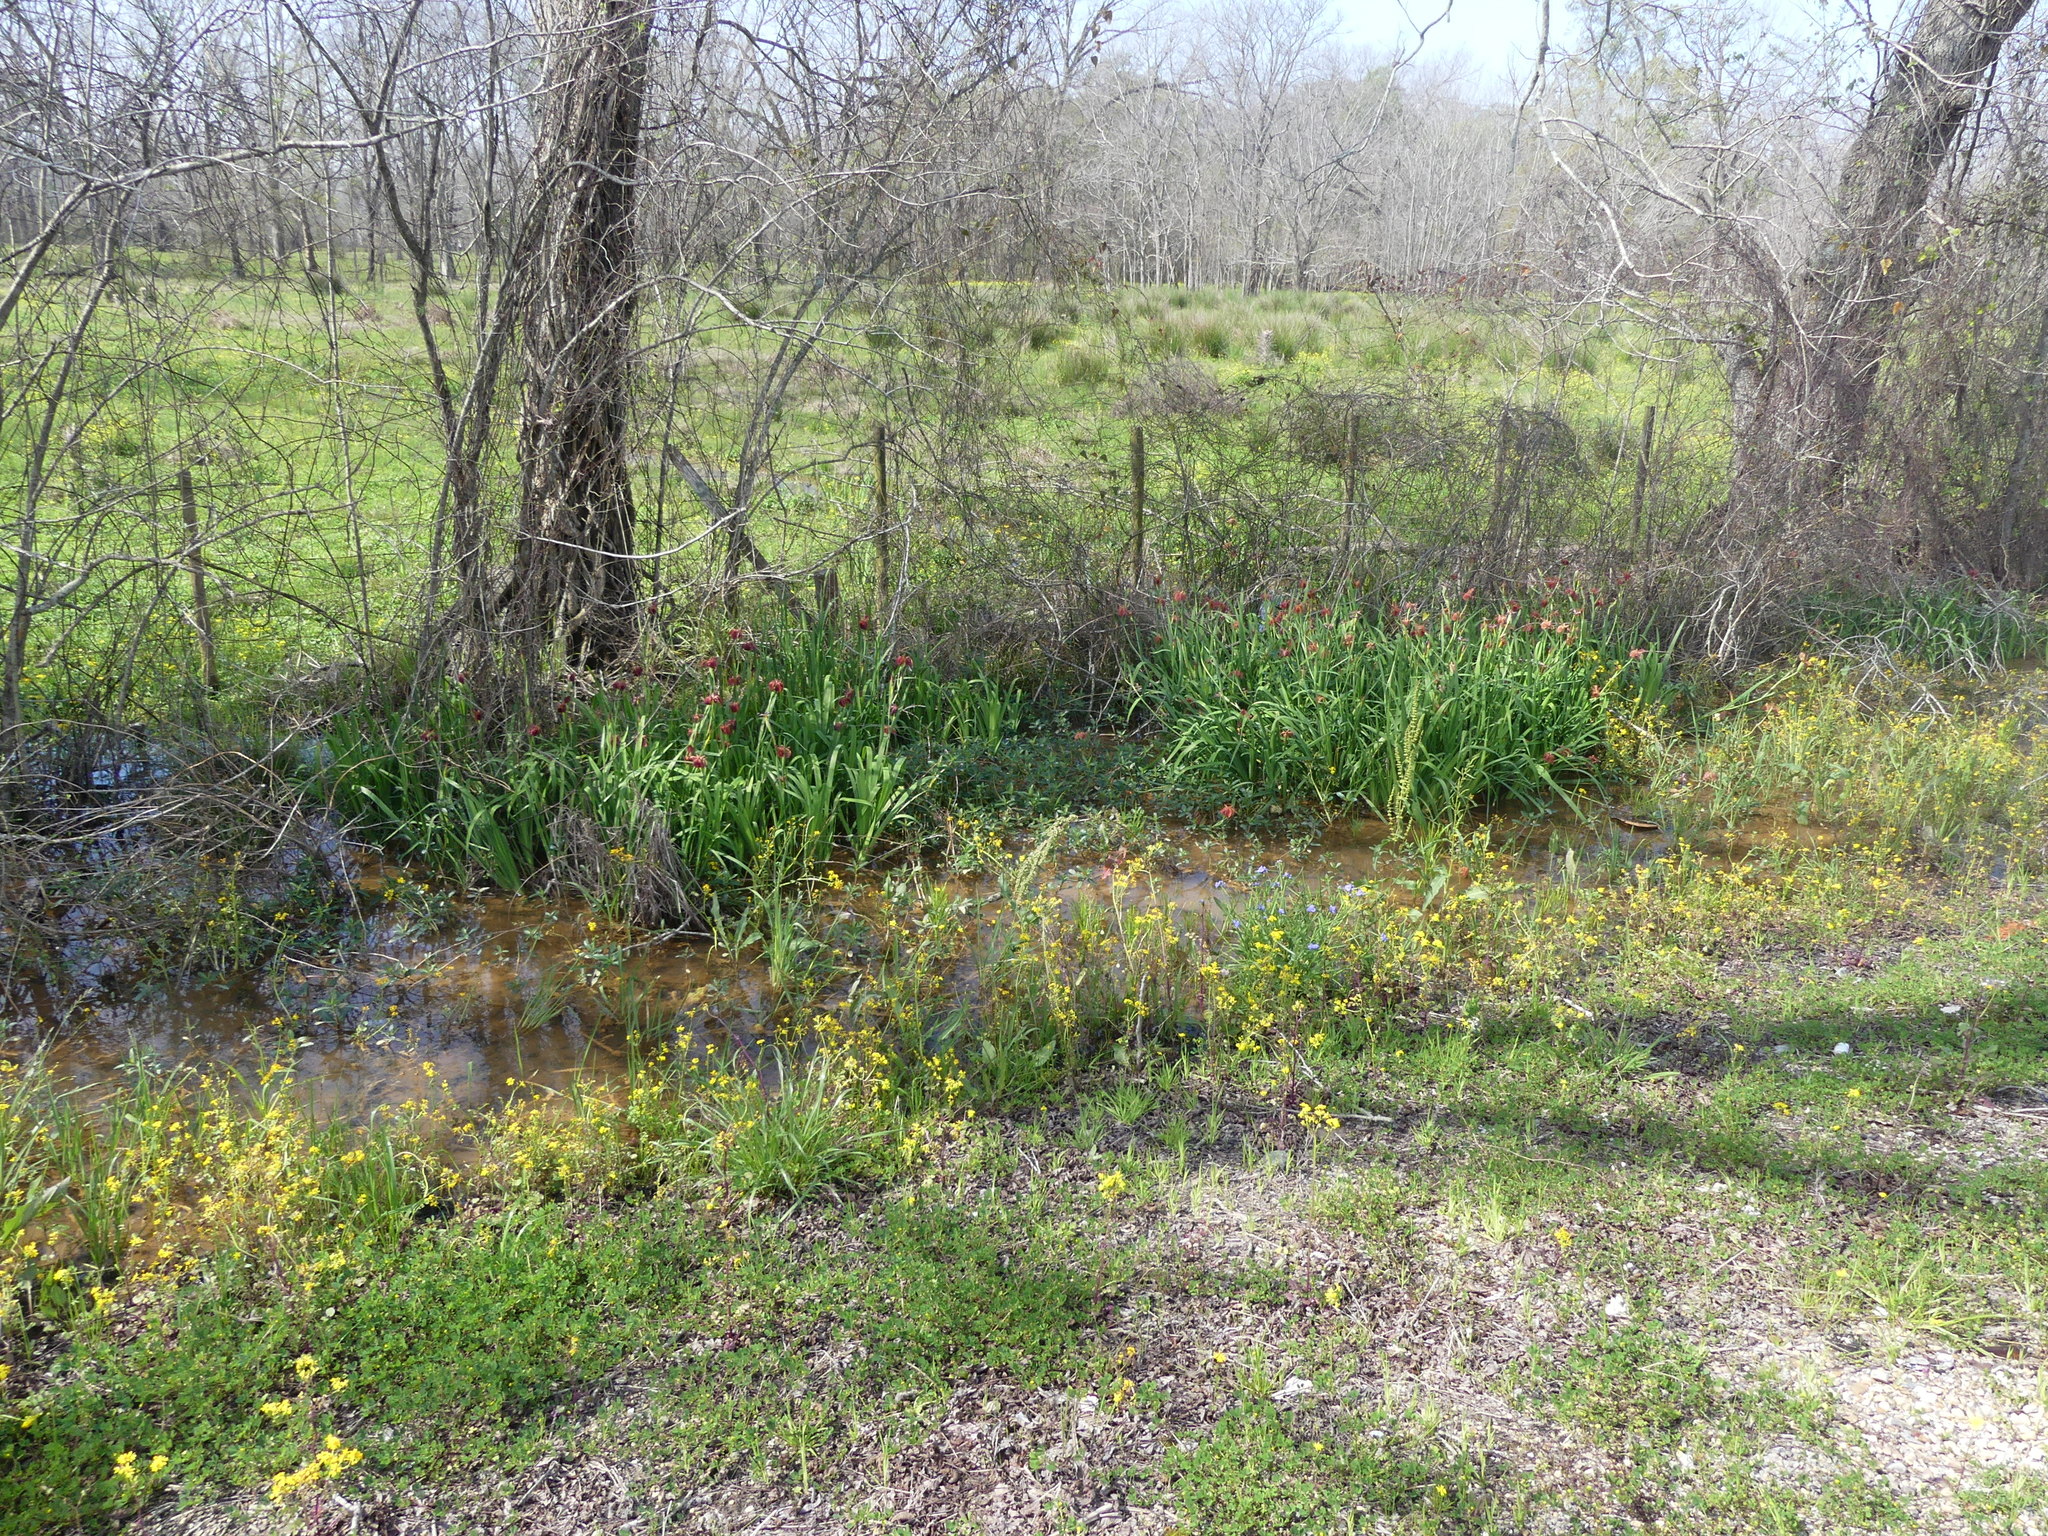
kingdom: Plantae
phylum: Tracheophyta
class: Liliopsida
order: Asparagales
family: Iridaceae
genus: Iris
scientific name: Iris fulva
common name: Copper iris
